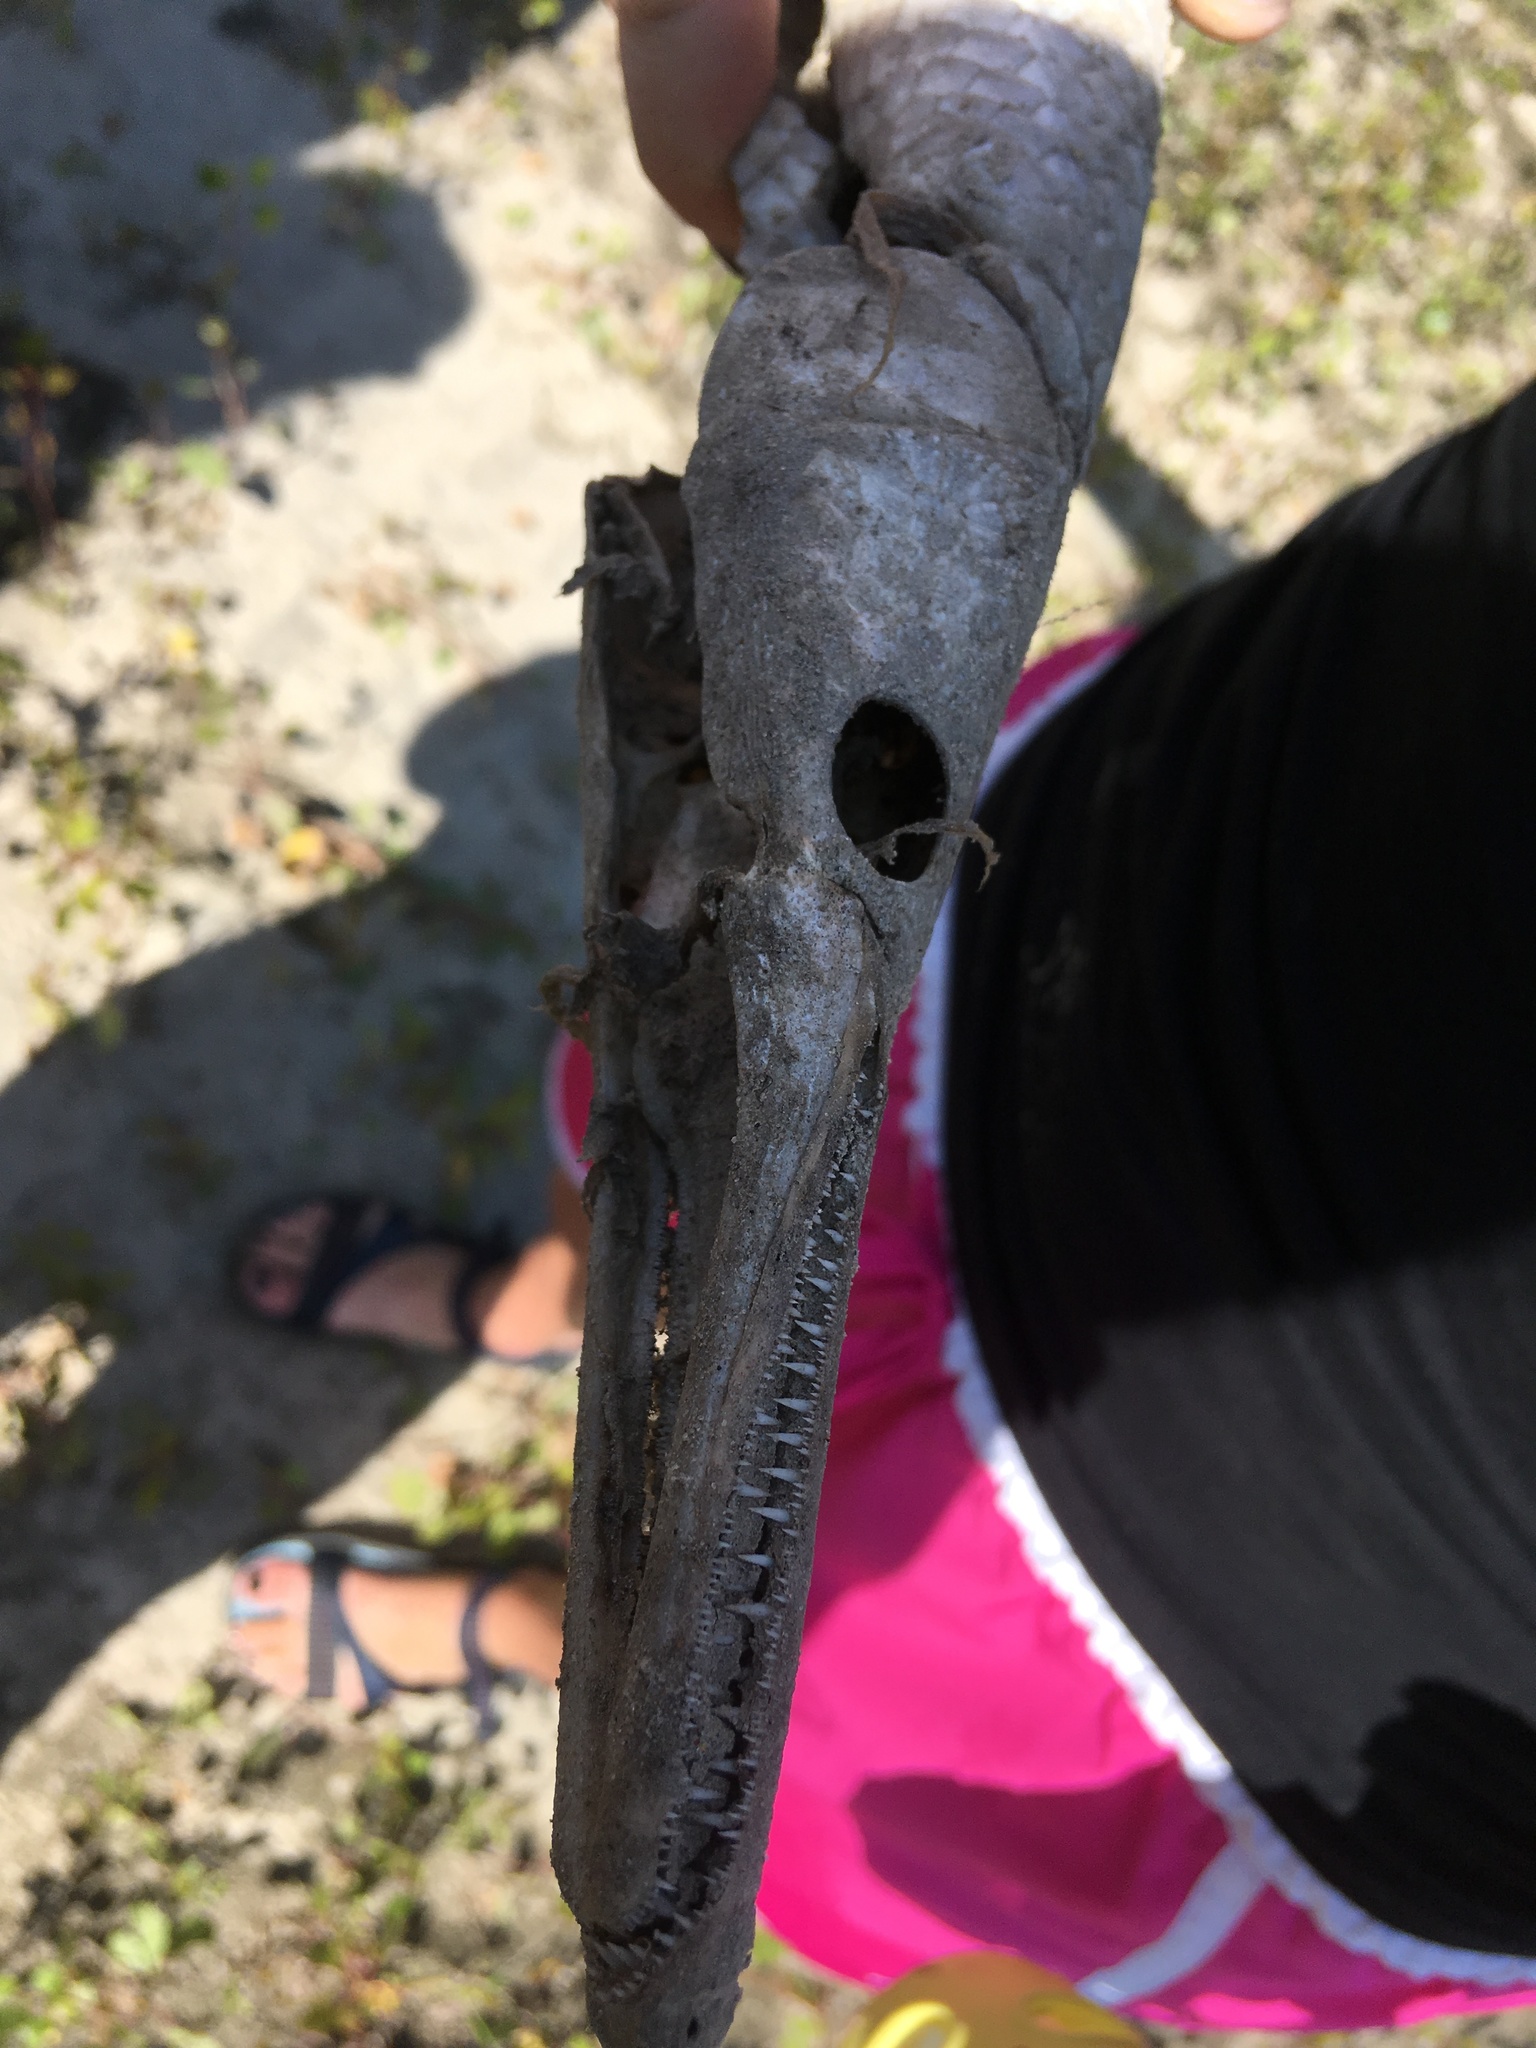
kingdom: Animalia
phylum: Chordata
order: Lepisosteiformes
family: Lepisosteidae
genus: Lepisosteus
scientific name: Lepisosteus platostomus
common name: Shortnose gar
